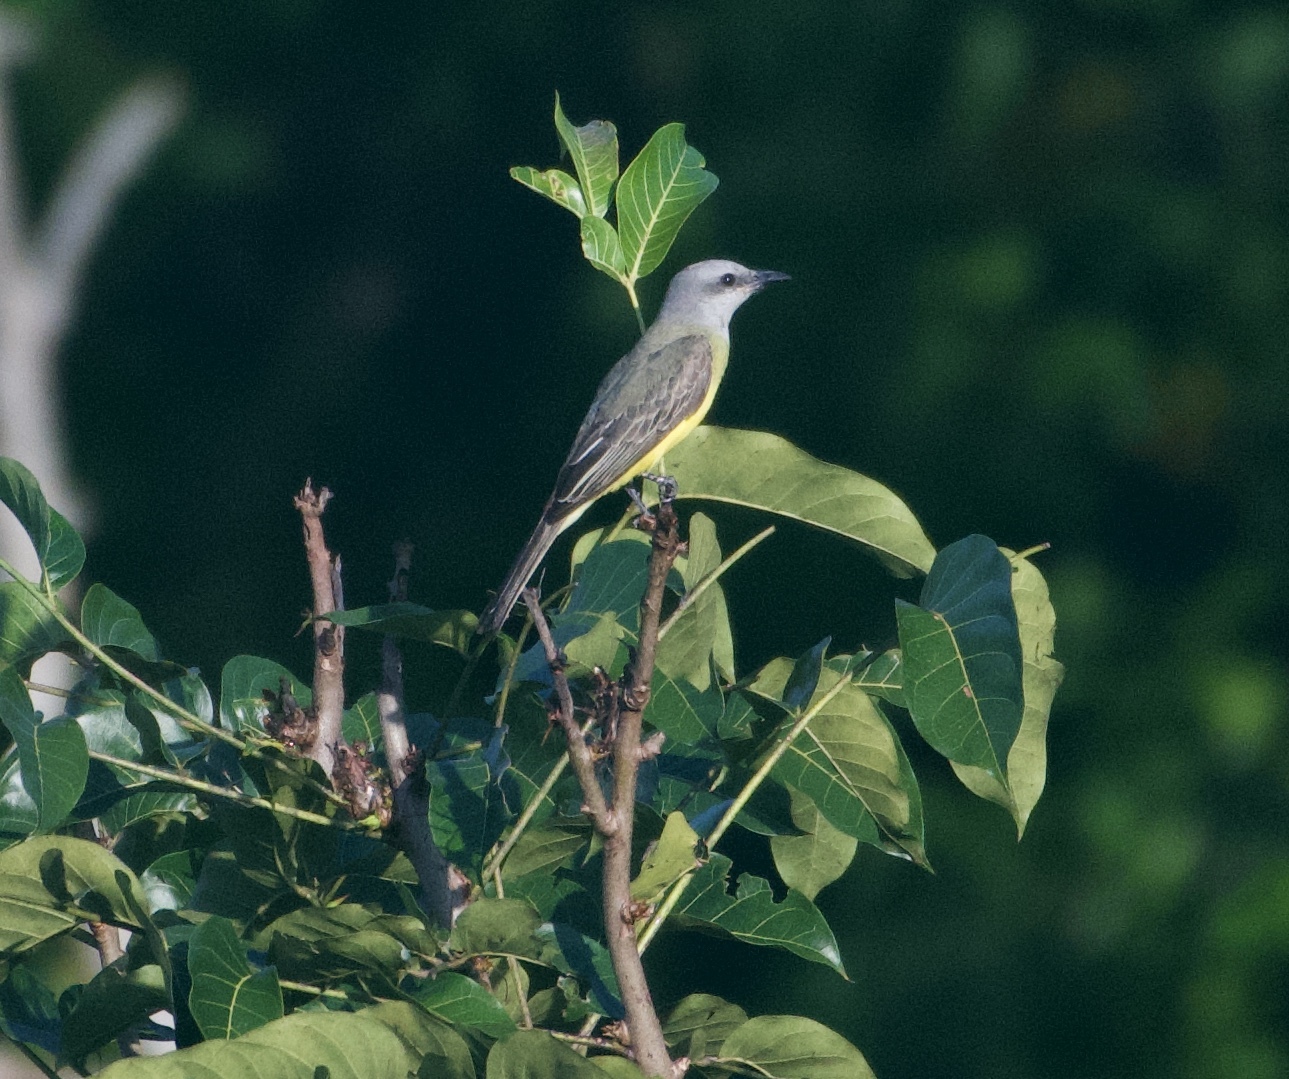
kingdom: Animalia
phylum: Chordata
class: Aves
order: Passeriformes
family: Tyrannidae
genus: Tyrannus
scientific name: Tyrannus melancholicus
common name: Tropical kingbird
